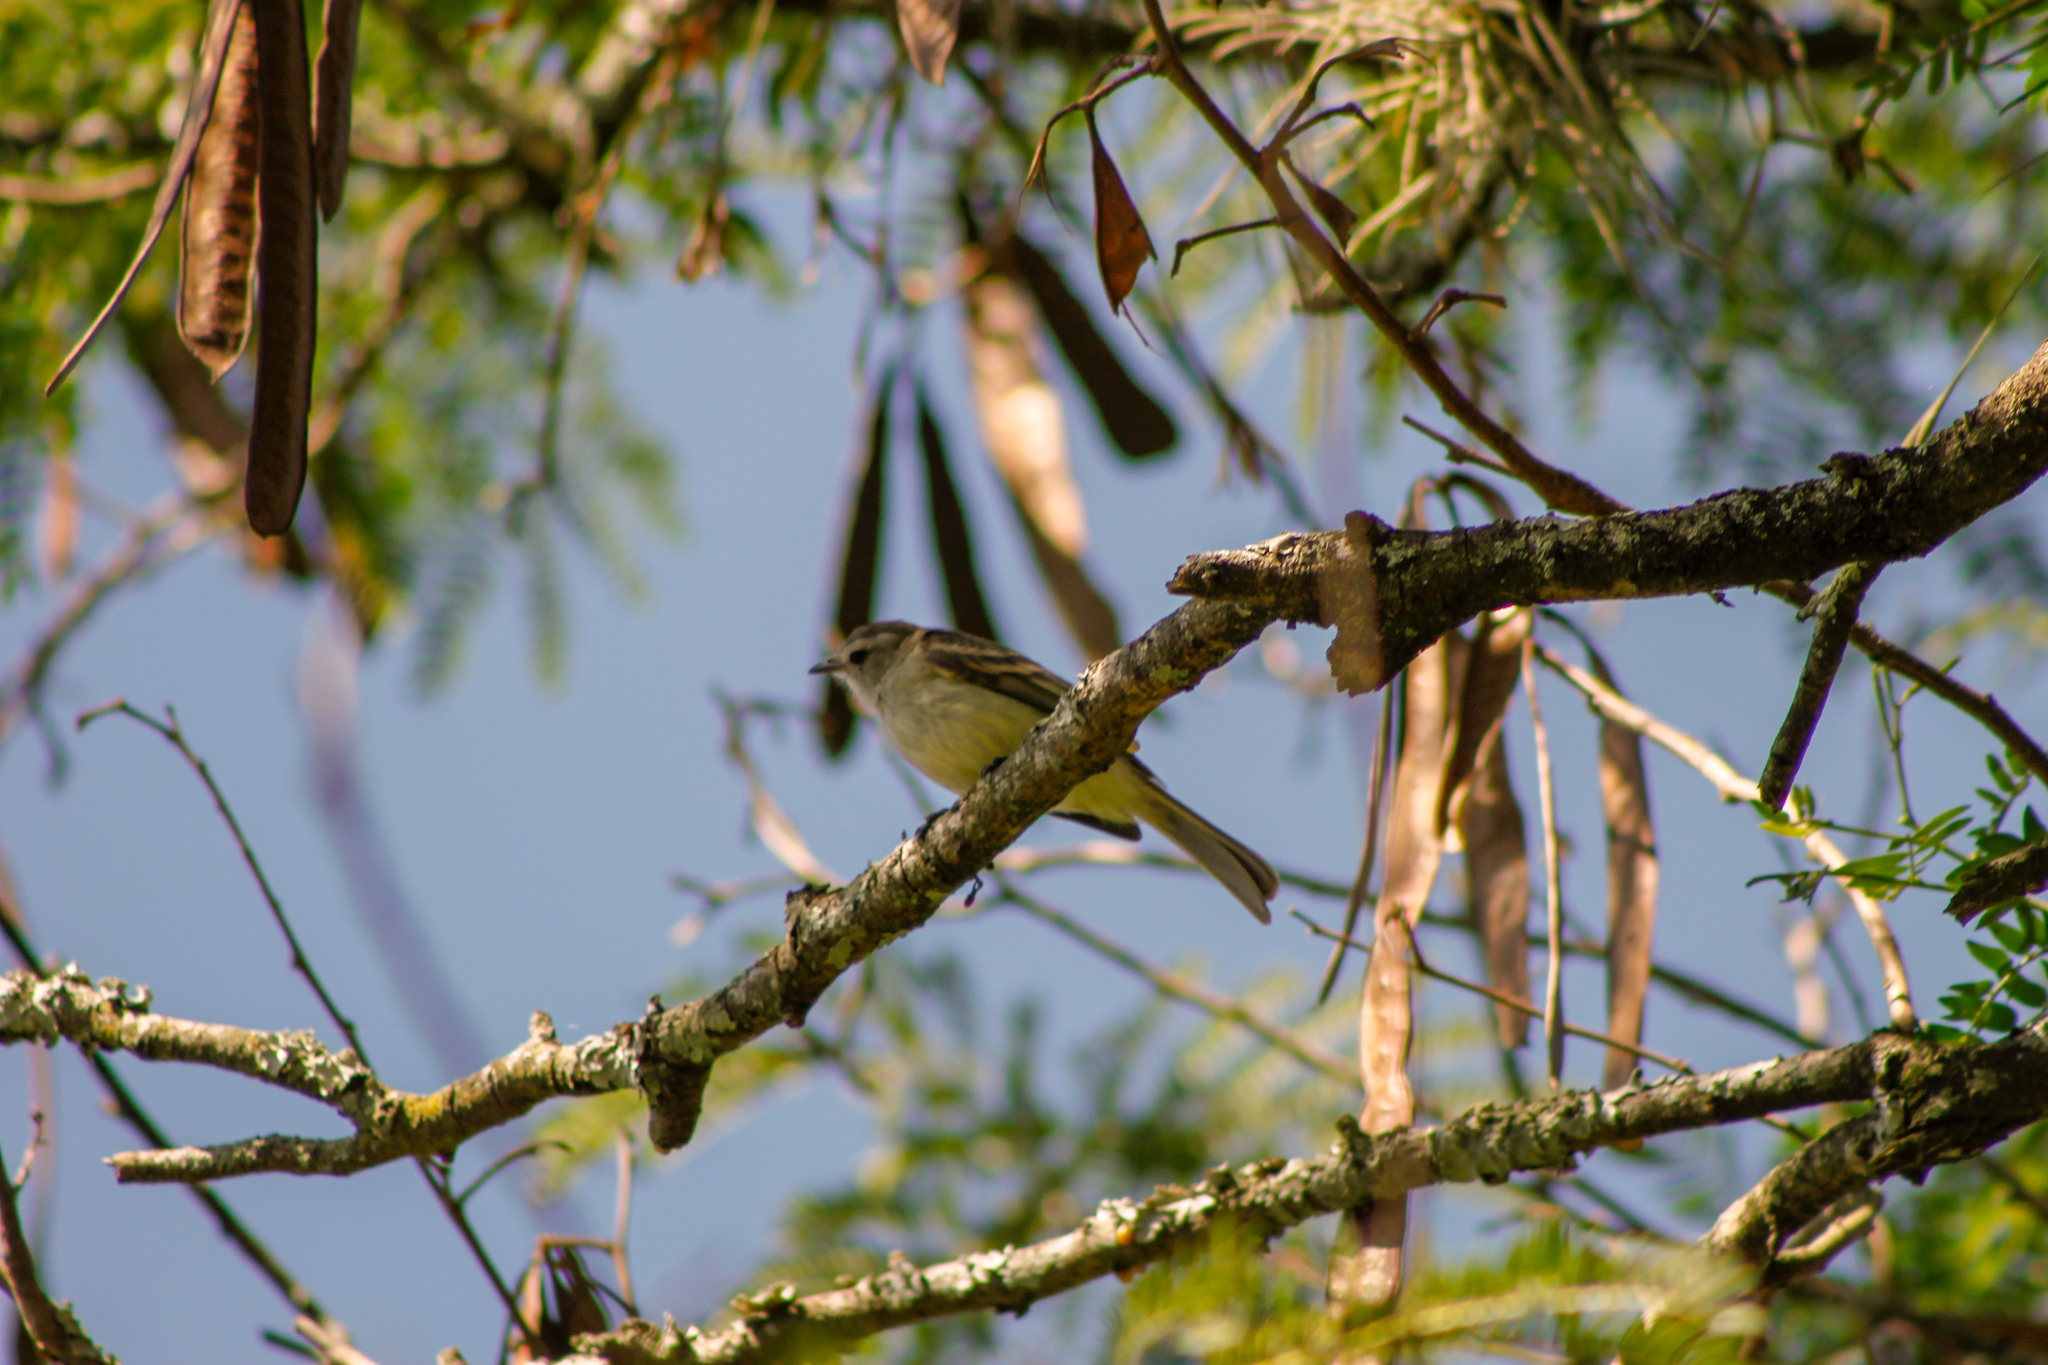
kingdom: Animalia
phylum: Chordata
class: Aves
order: Passeriformes
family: Tyrannidae
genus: Camptostoma
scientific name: Camptostoma obsoletum
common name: Southern beardless-tyrannulet
